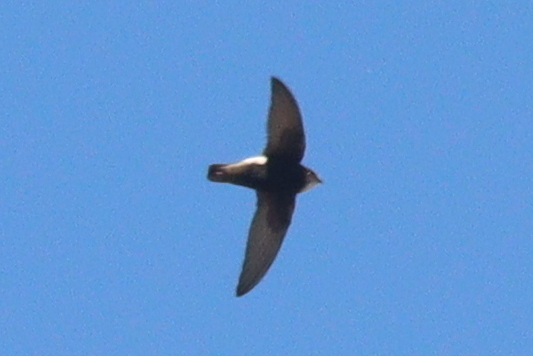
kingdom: Animalia
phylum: Chordata
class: Aves
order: Apodiformes
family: Apodidae
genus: Apus
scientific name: Apus affinis
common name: Little swift
